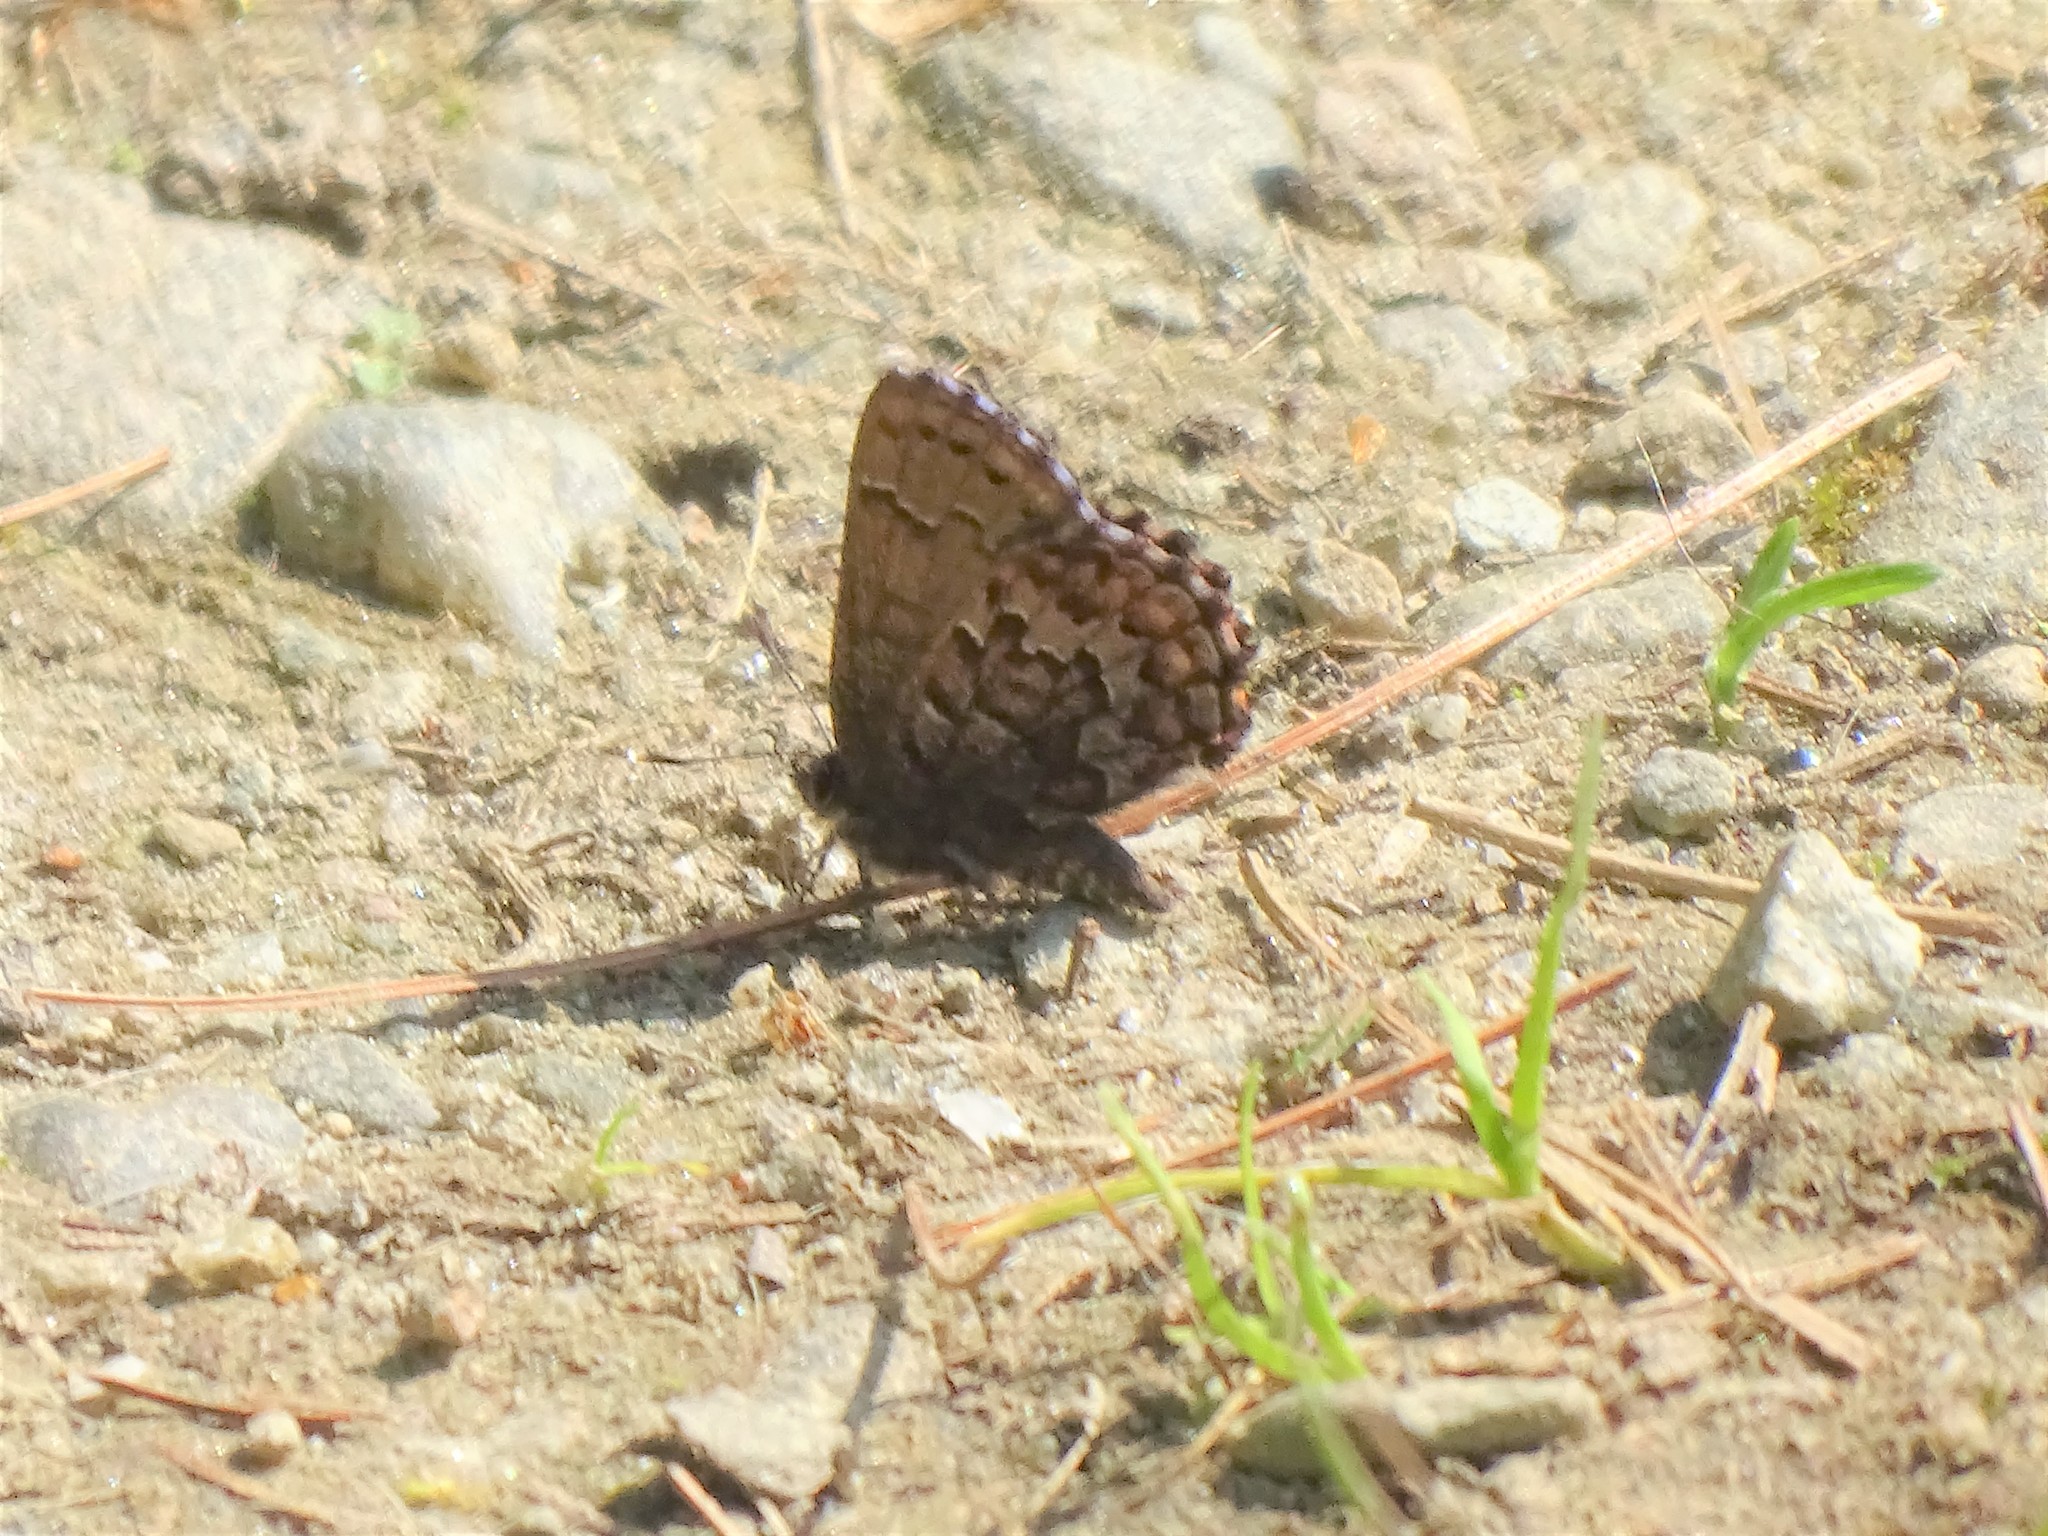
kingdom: Animalia
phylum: Arthropoda
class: Insecta
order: Lepidoptera
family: Lycaenidae
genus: Incisalia
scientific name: Incisalia niphon
